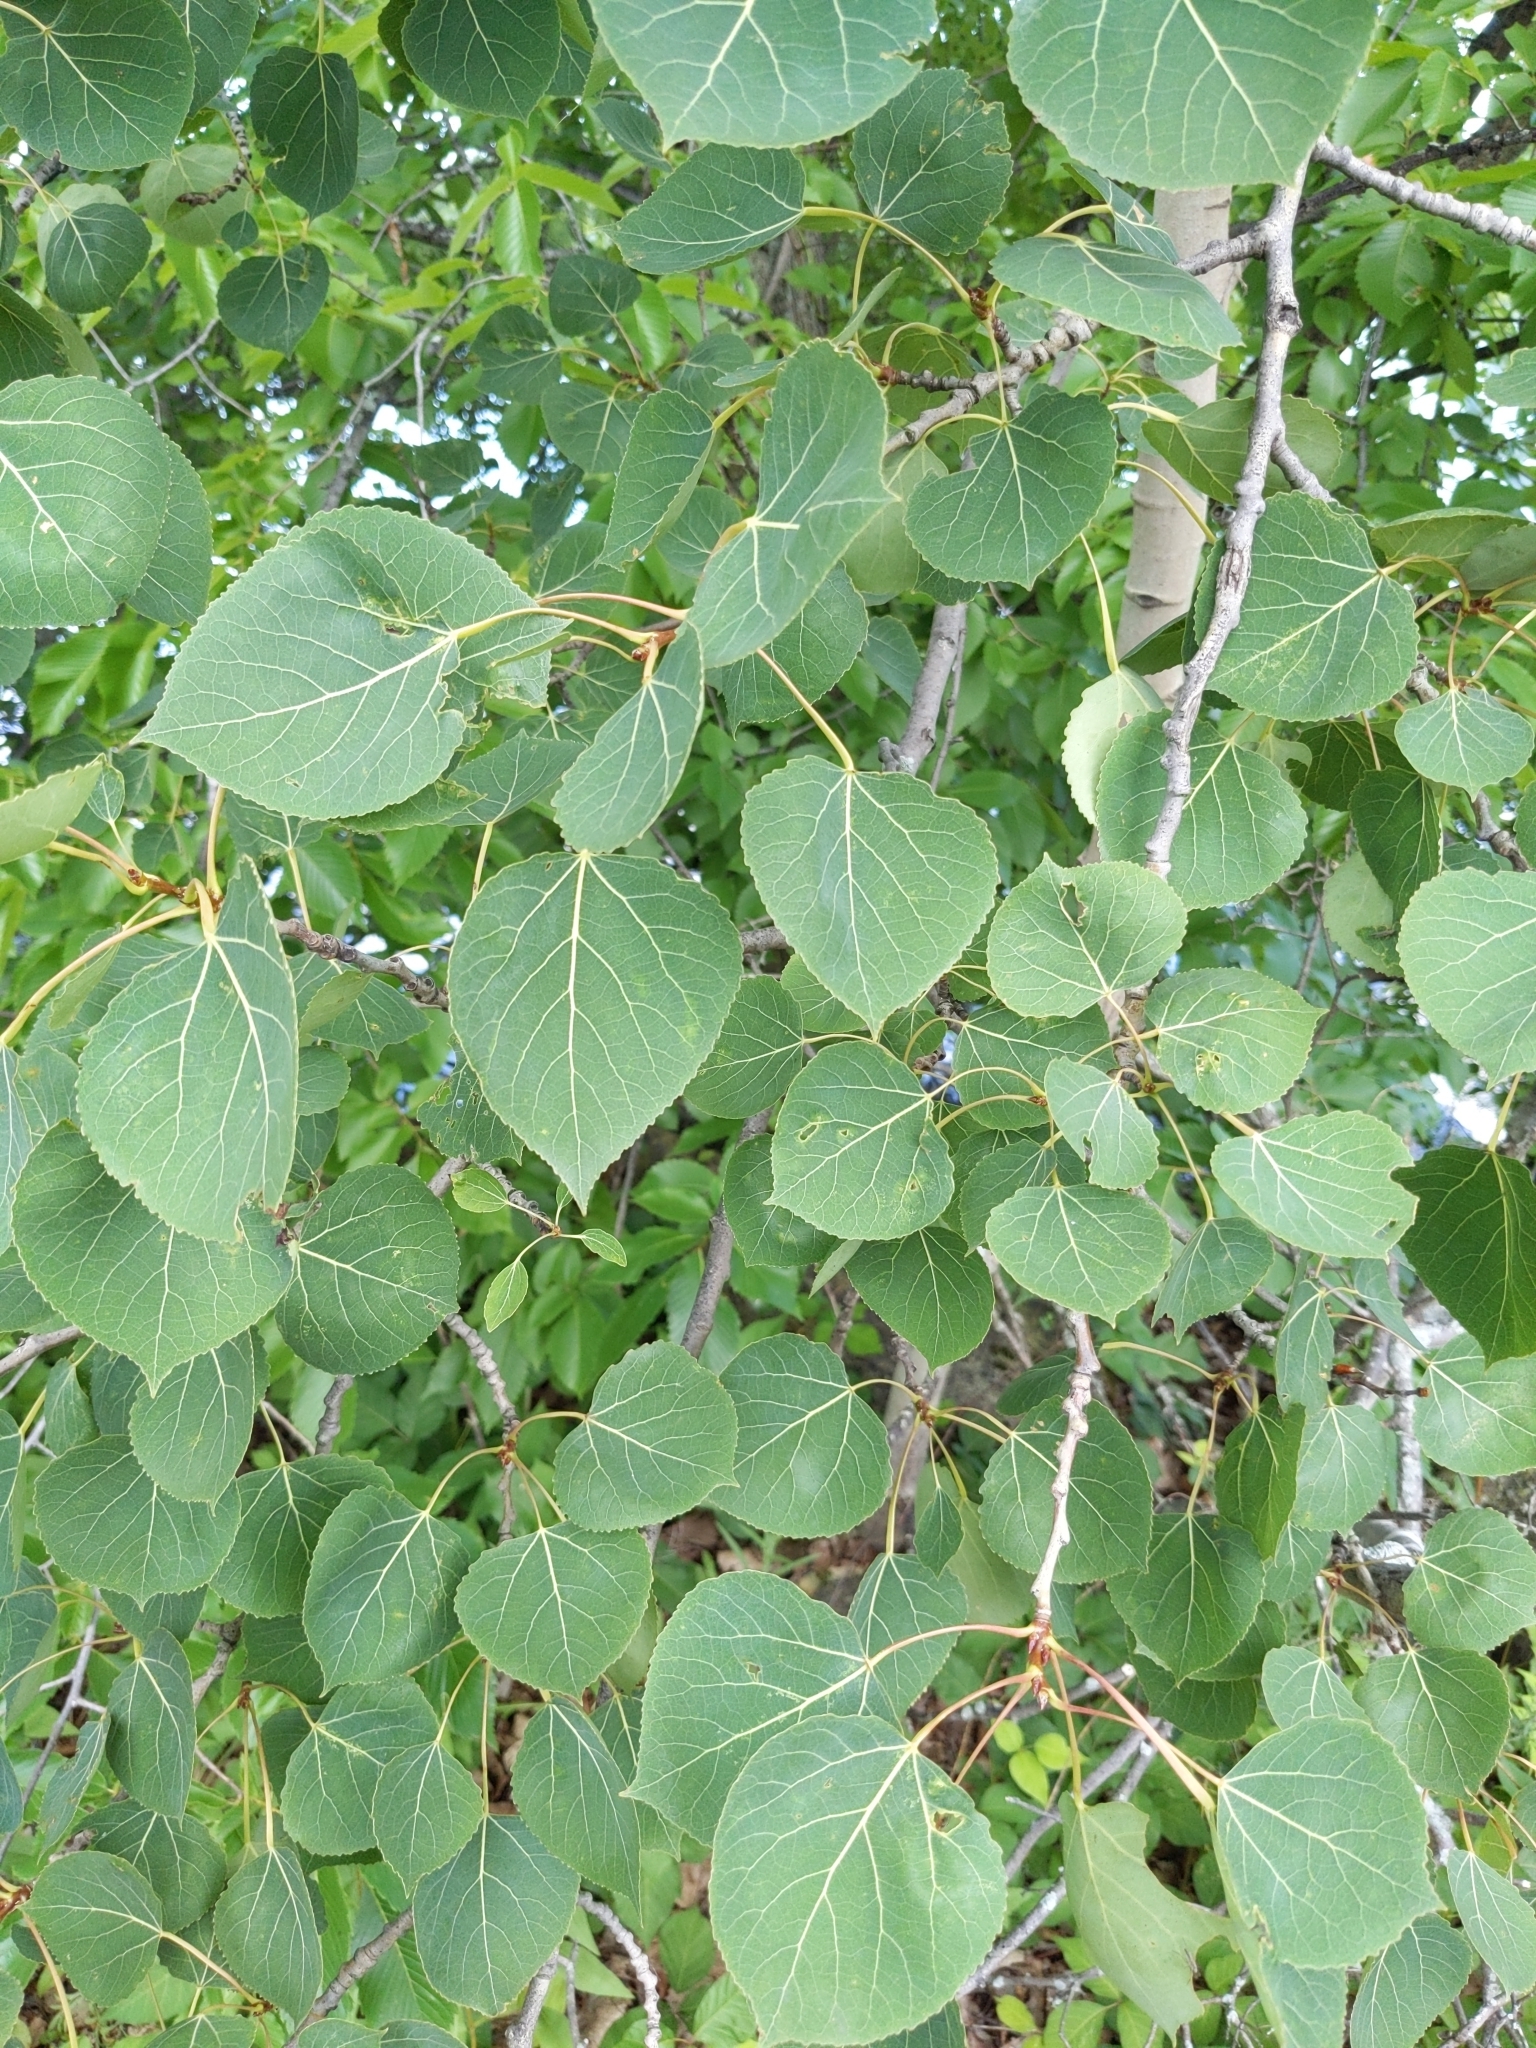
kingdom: Plantae
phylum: Tracheophyta
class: Magnoliopsida
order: Malpighiales
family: Salicaceae
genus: Populus
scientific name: Populus tremuloides
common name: Quaking aspen
